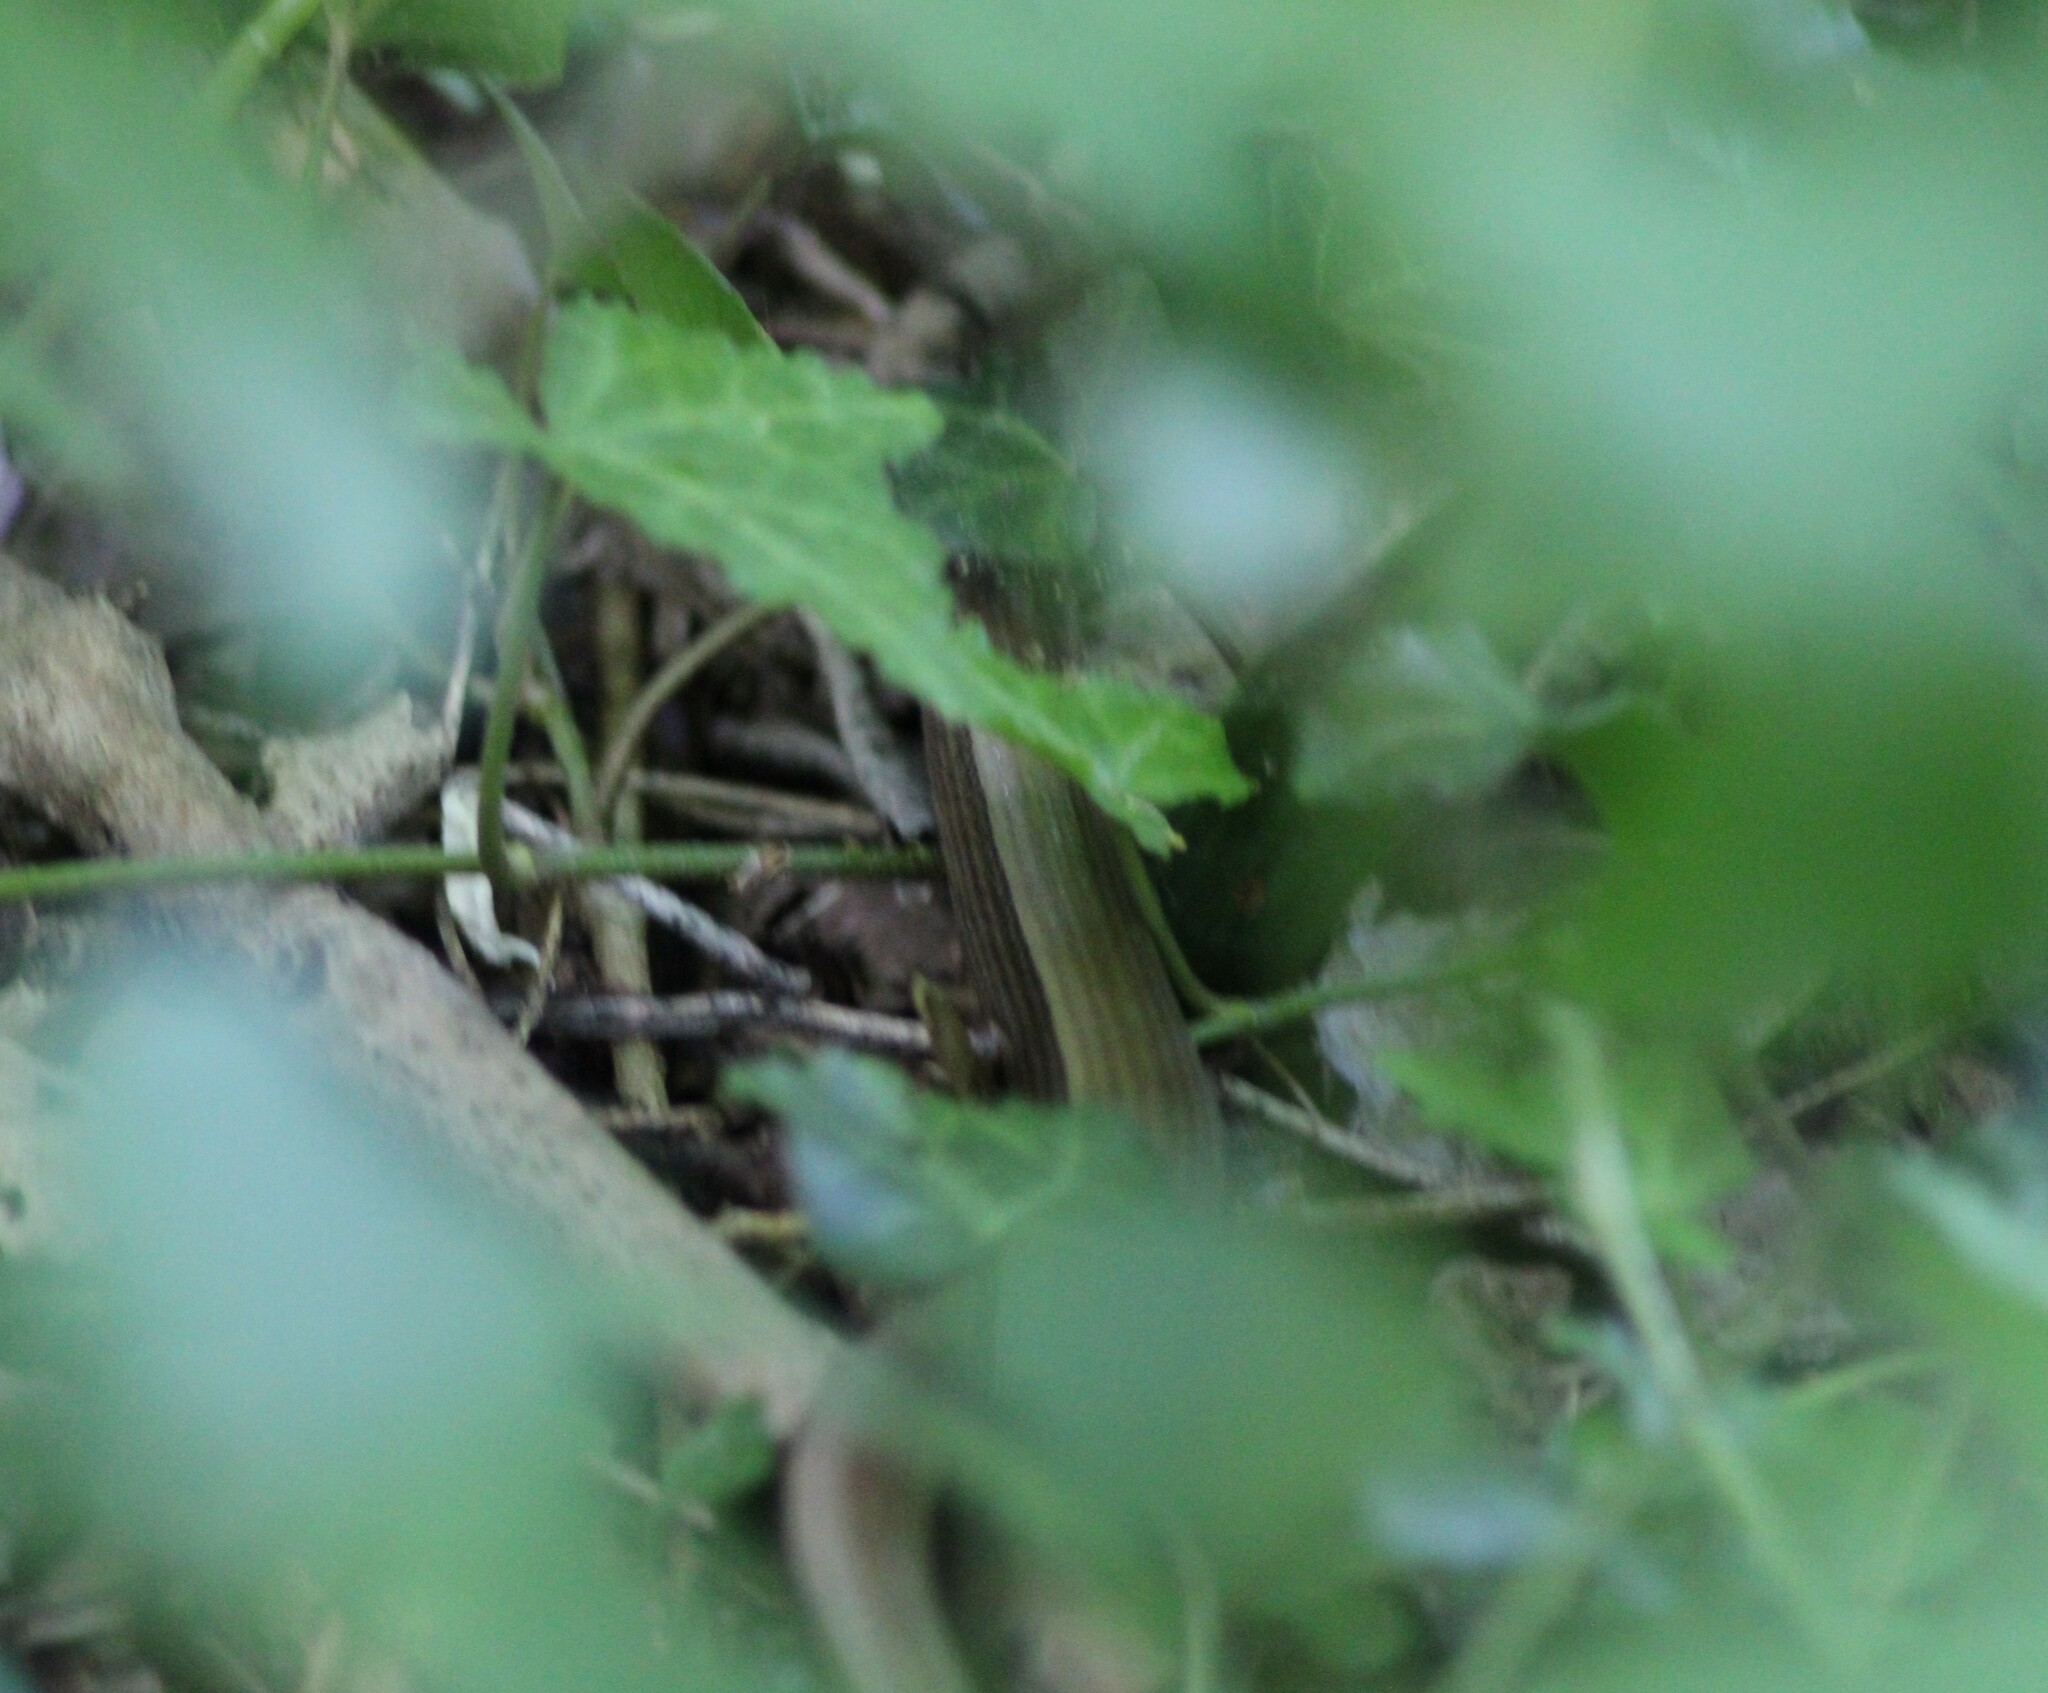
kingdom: Animalia
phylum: Chordata
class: Squamata
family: Anguidae
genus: Anguis
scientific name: Anguis fragilis
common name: Slow worm
